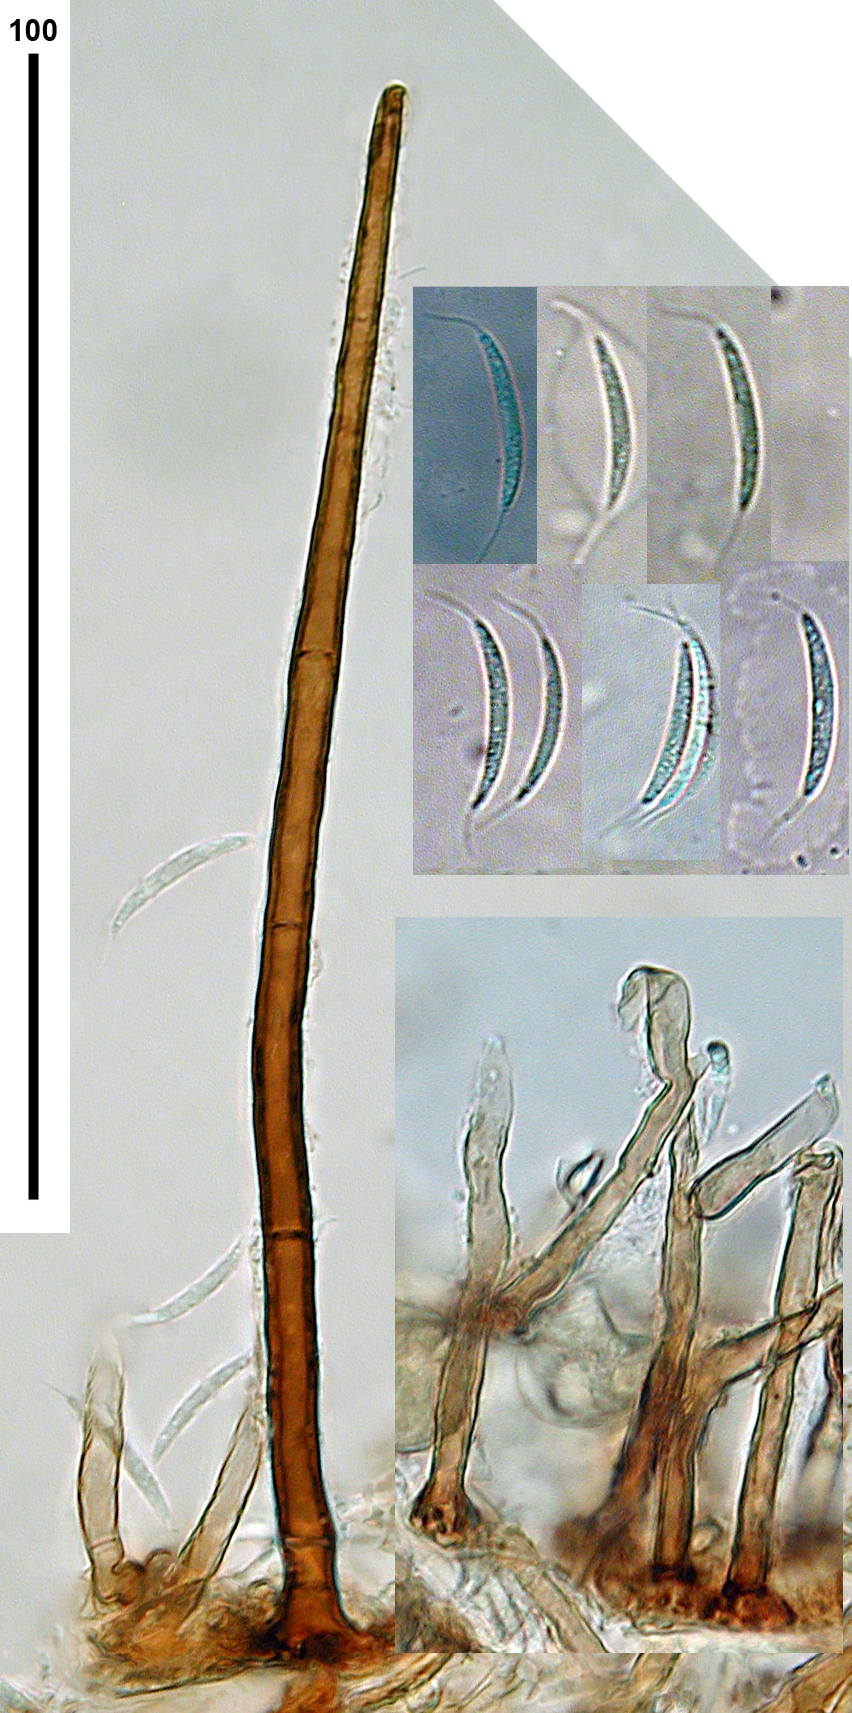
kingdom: Fungi
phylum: Ascomycota
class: Sordariomycetes
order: Chaetosphaeriales
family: Chaetosphaeriaceae
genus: Dictyochaeta
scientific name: Dictyochaeta australiensis
